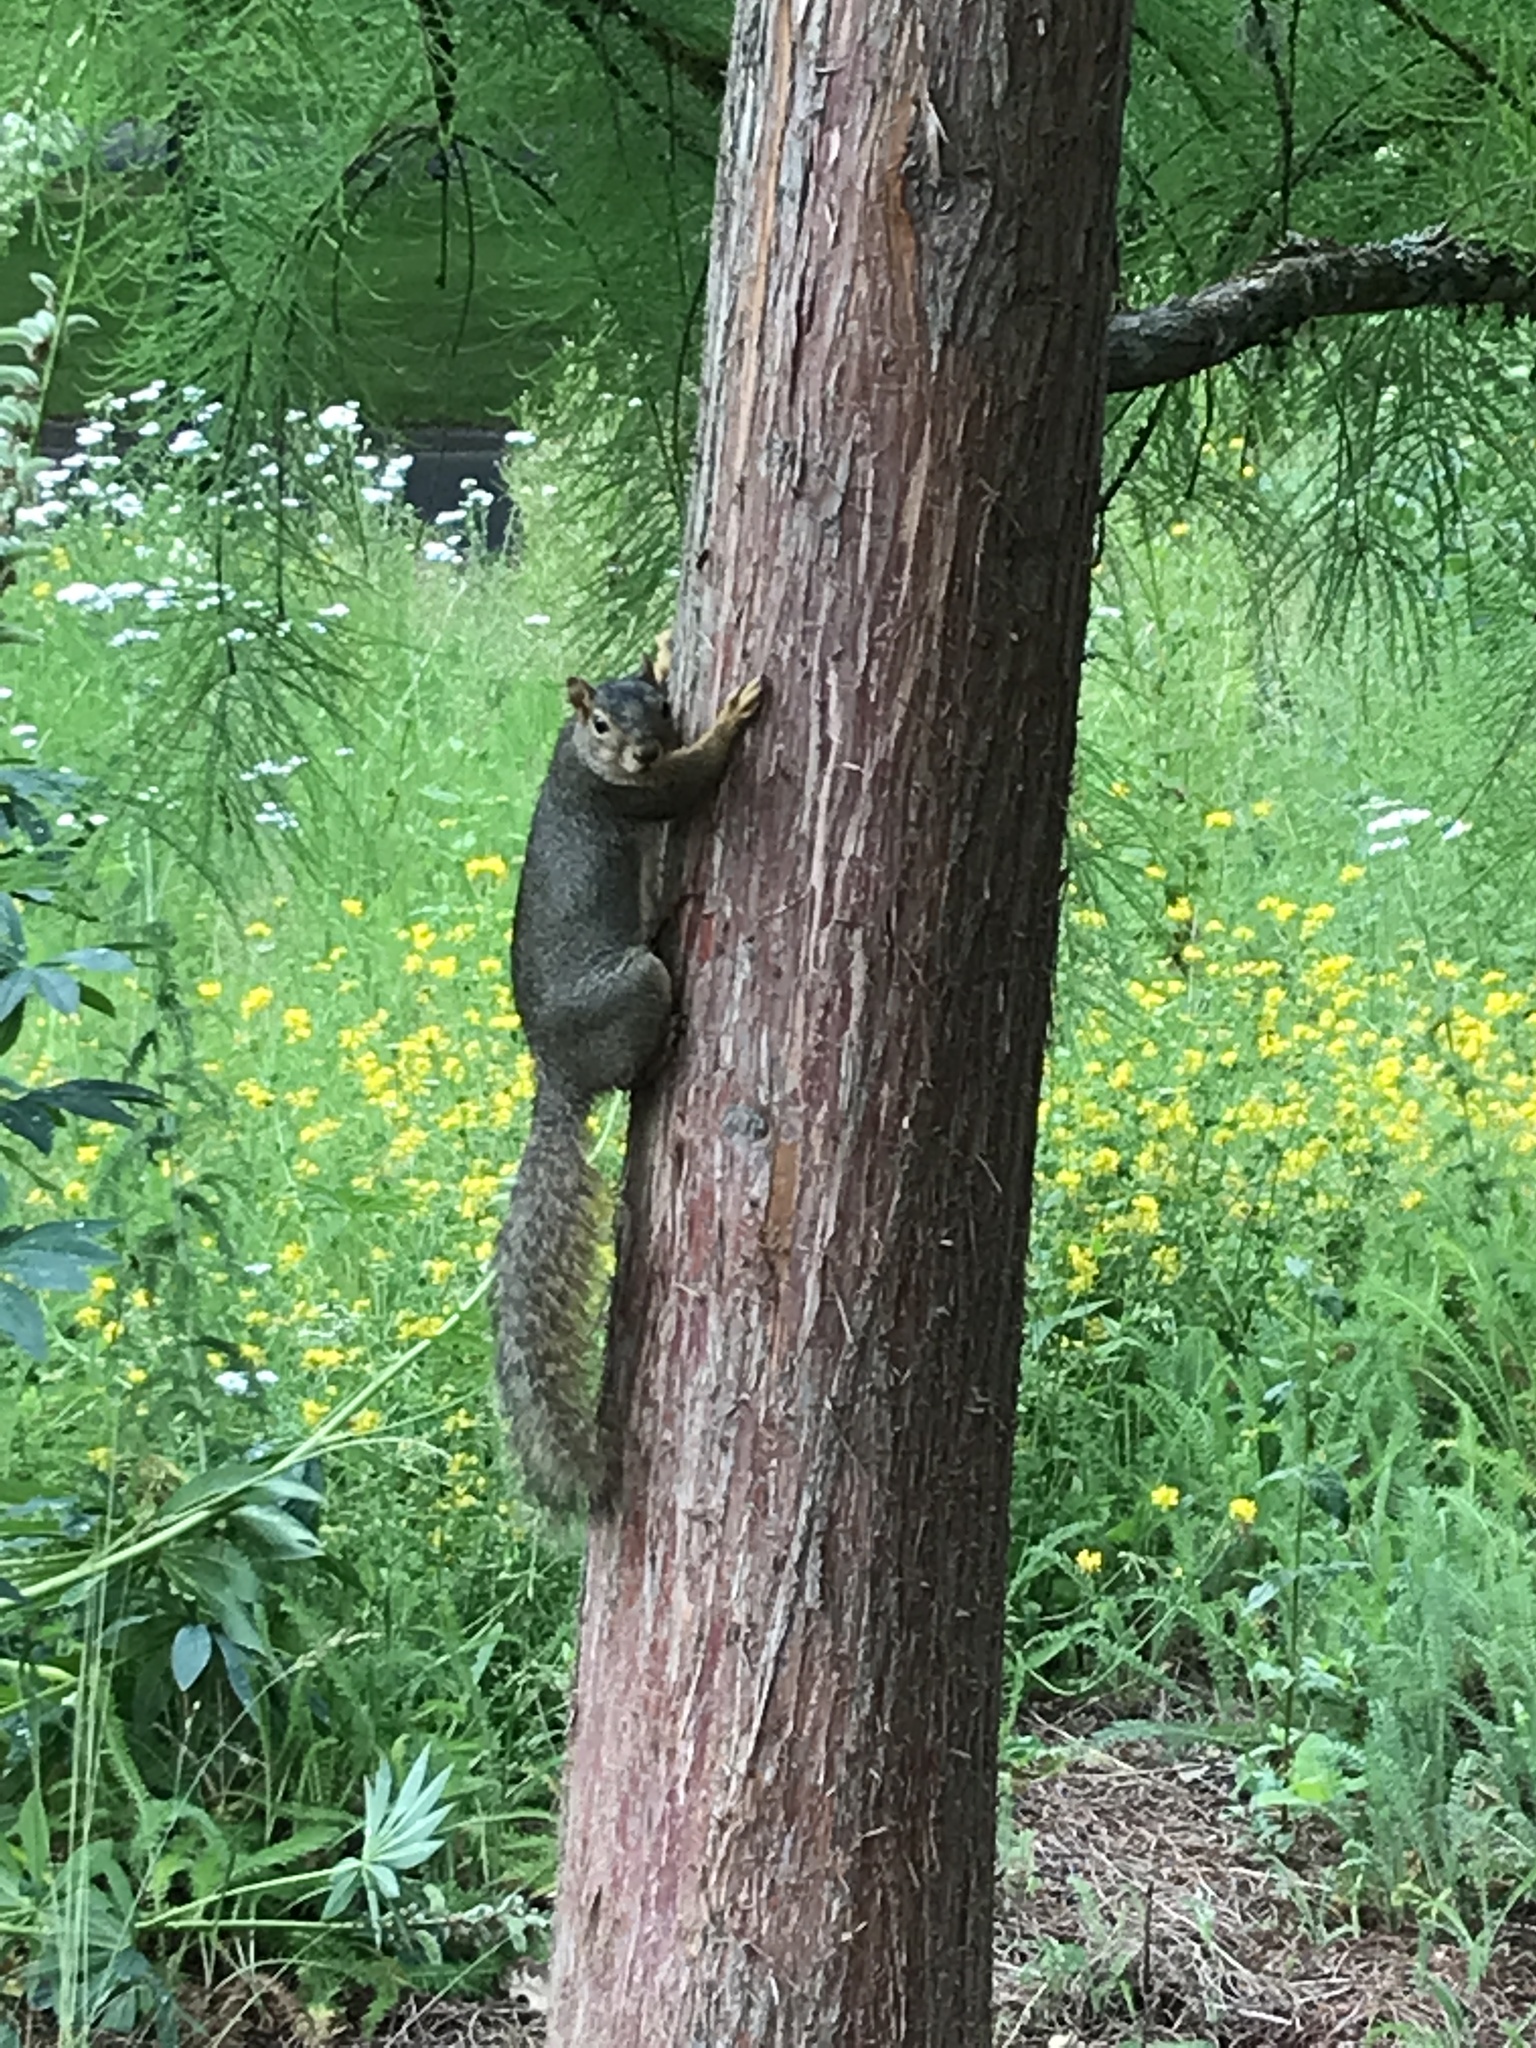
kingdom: Animalia
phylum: Chordata
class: Mammalia
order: Rodentia
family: Sciuridae
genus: Sciurus
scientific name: Sciurus niger
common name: Fox squirrel
